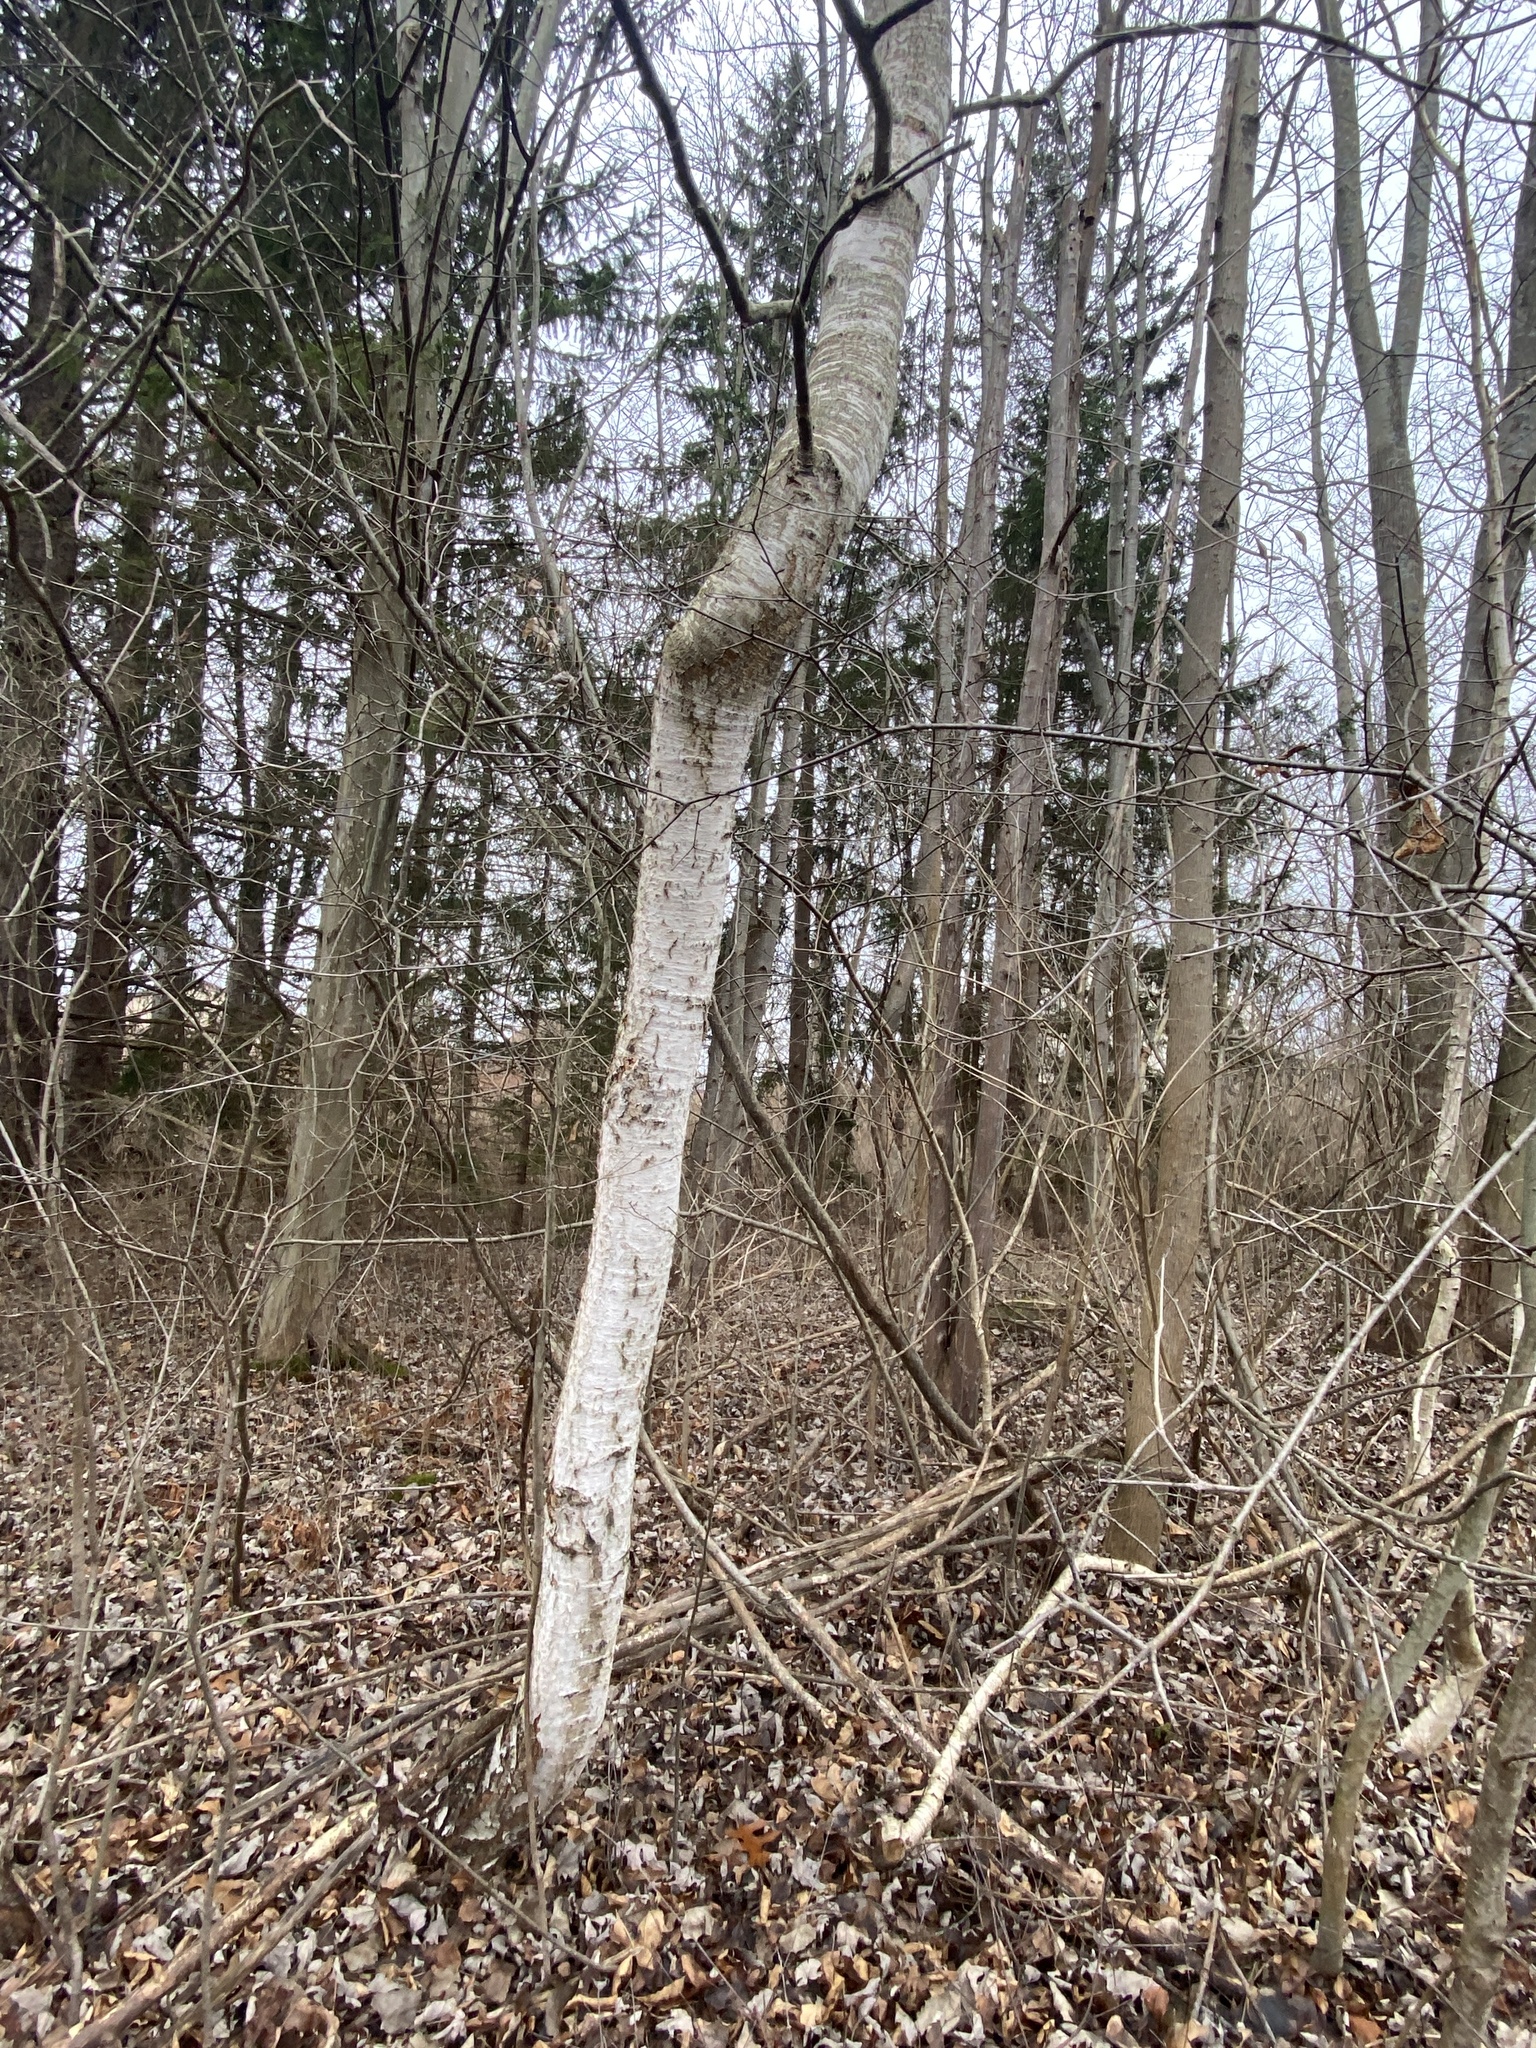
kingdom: Plantae
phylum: Tracheophyta
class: Magnoliopsida
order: Fagales
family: Betulaceae
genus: Betula
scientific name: Betula papyrifera
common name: Paper birch
